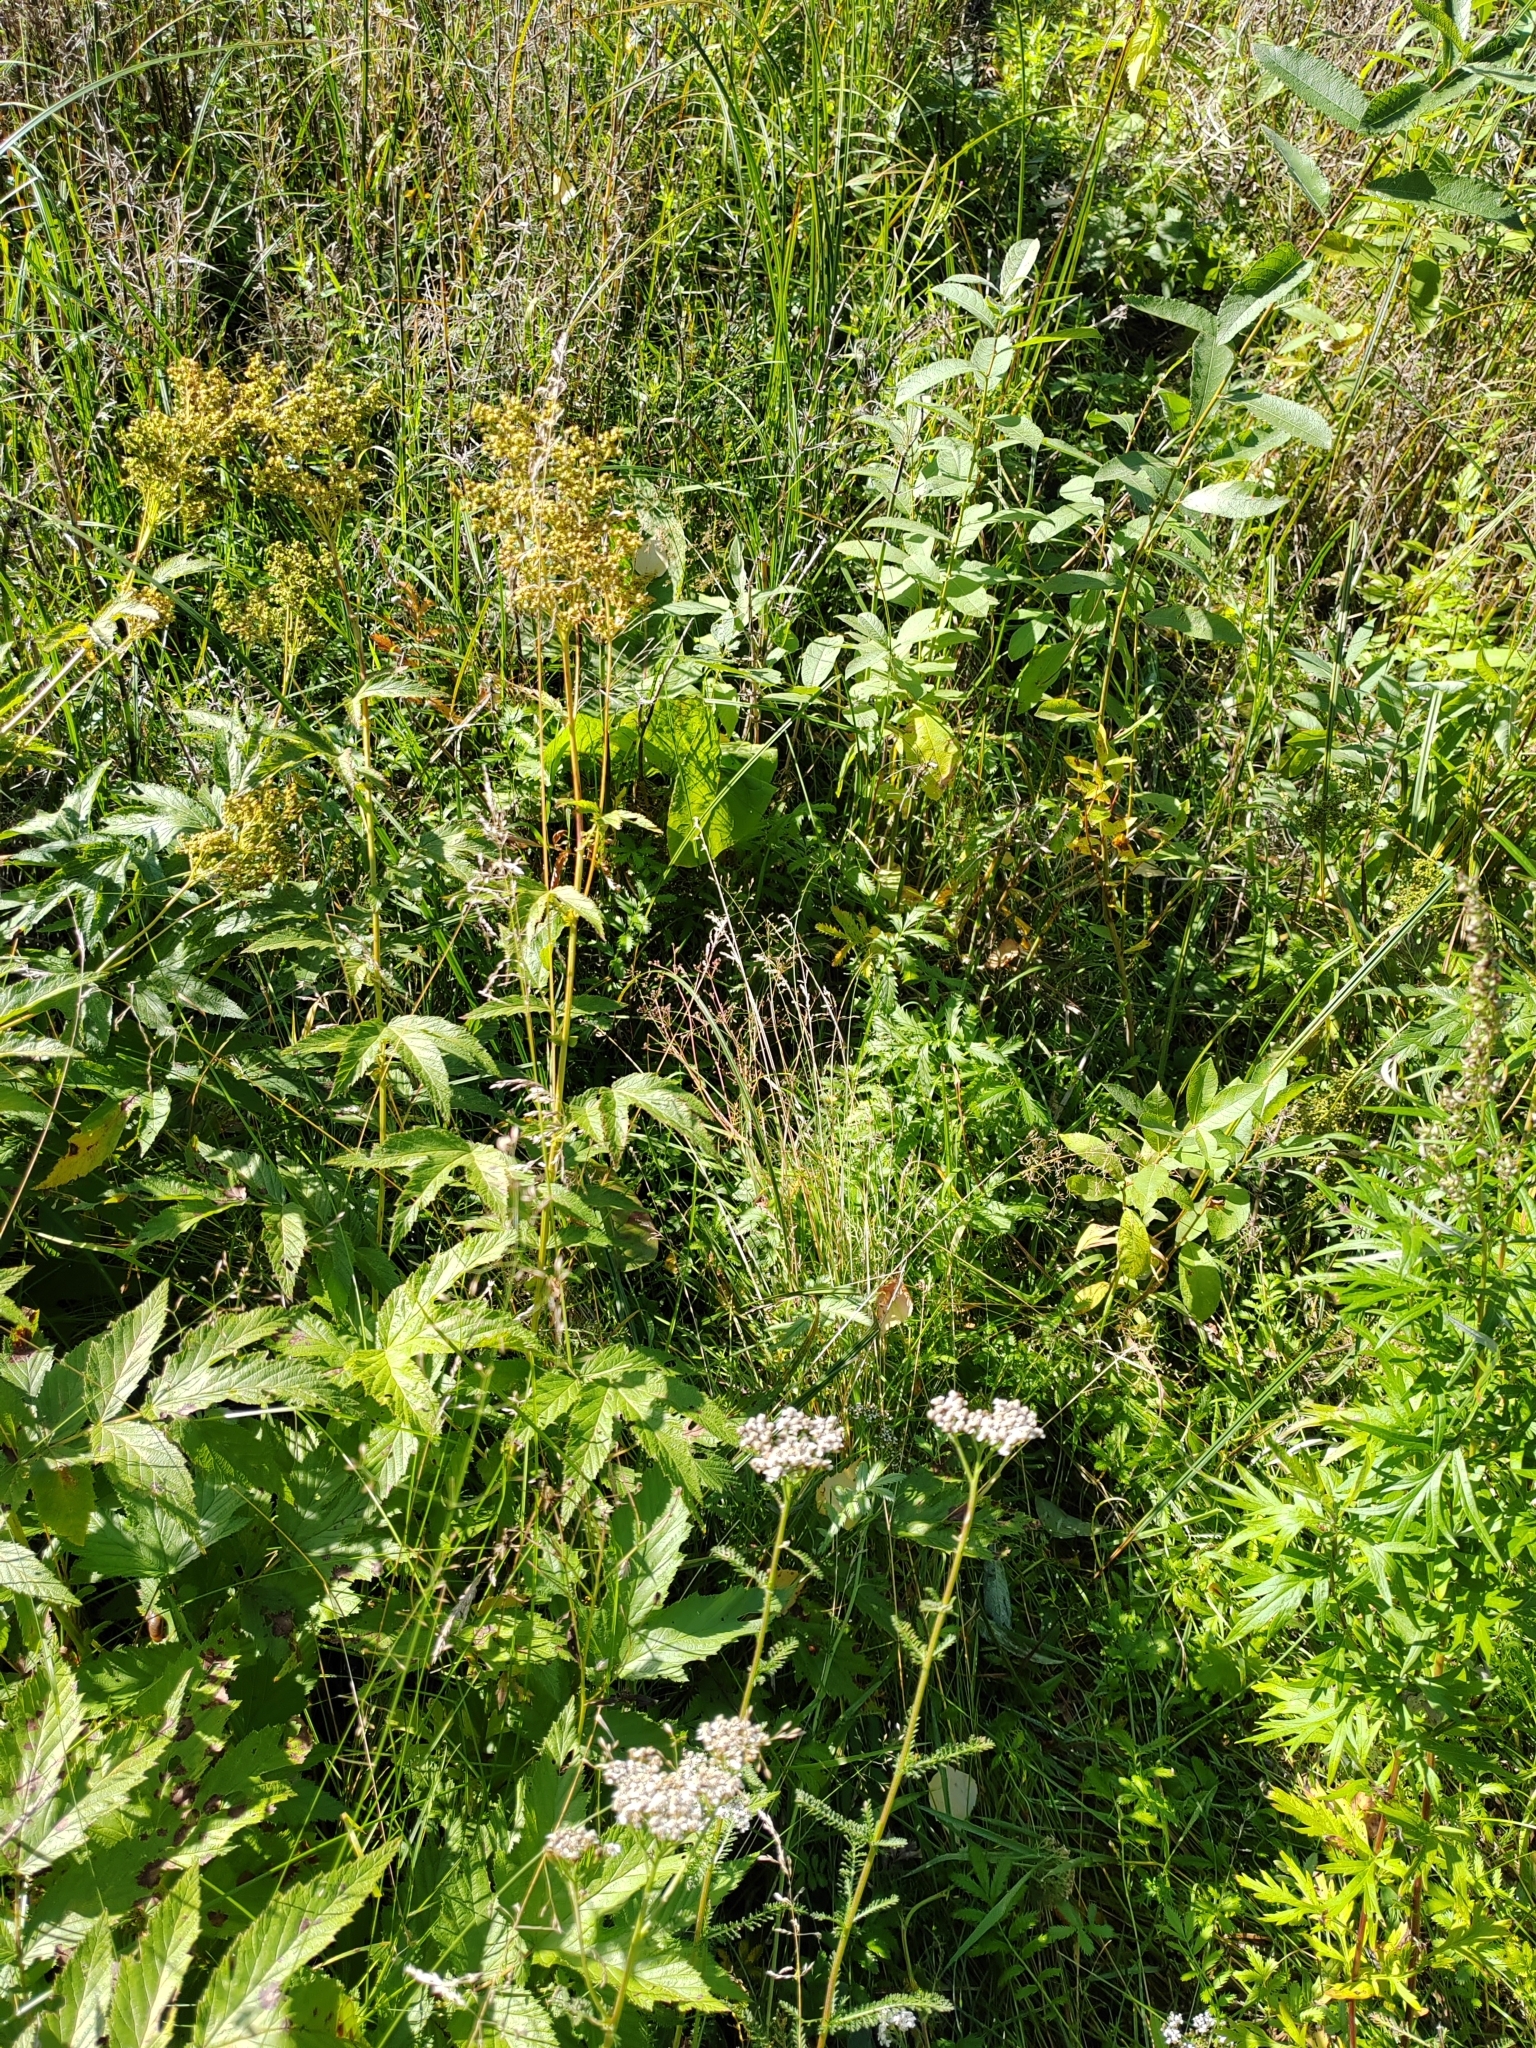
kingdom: Plantae
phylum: Tracheophyta
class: Magnoliopsida
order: Rosales
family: Rosaceae
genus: Filipendula
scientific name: Filipendula ulmaria
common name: Meadowsweet
